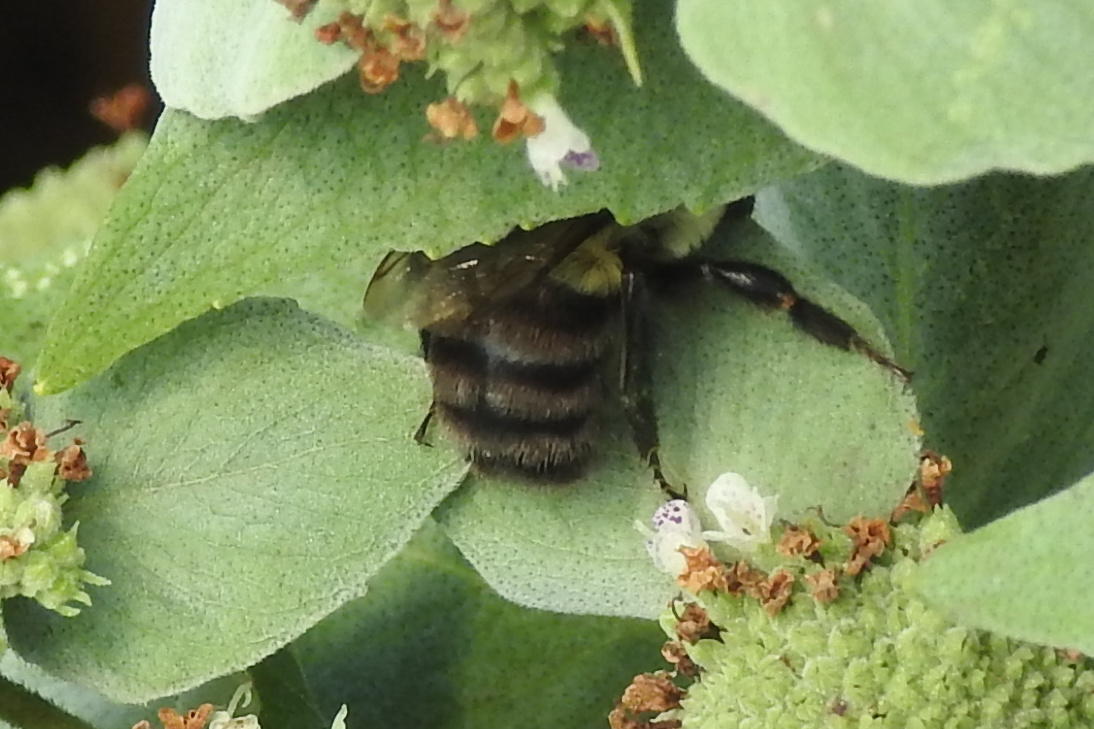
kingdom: Animalia
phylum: Arthropoda
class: Insecta
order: Hymenoptera
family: Apidae
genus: Bombus
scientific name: Bombus impatiens
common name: Common eastern bumble bee
